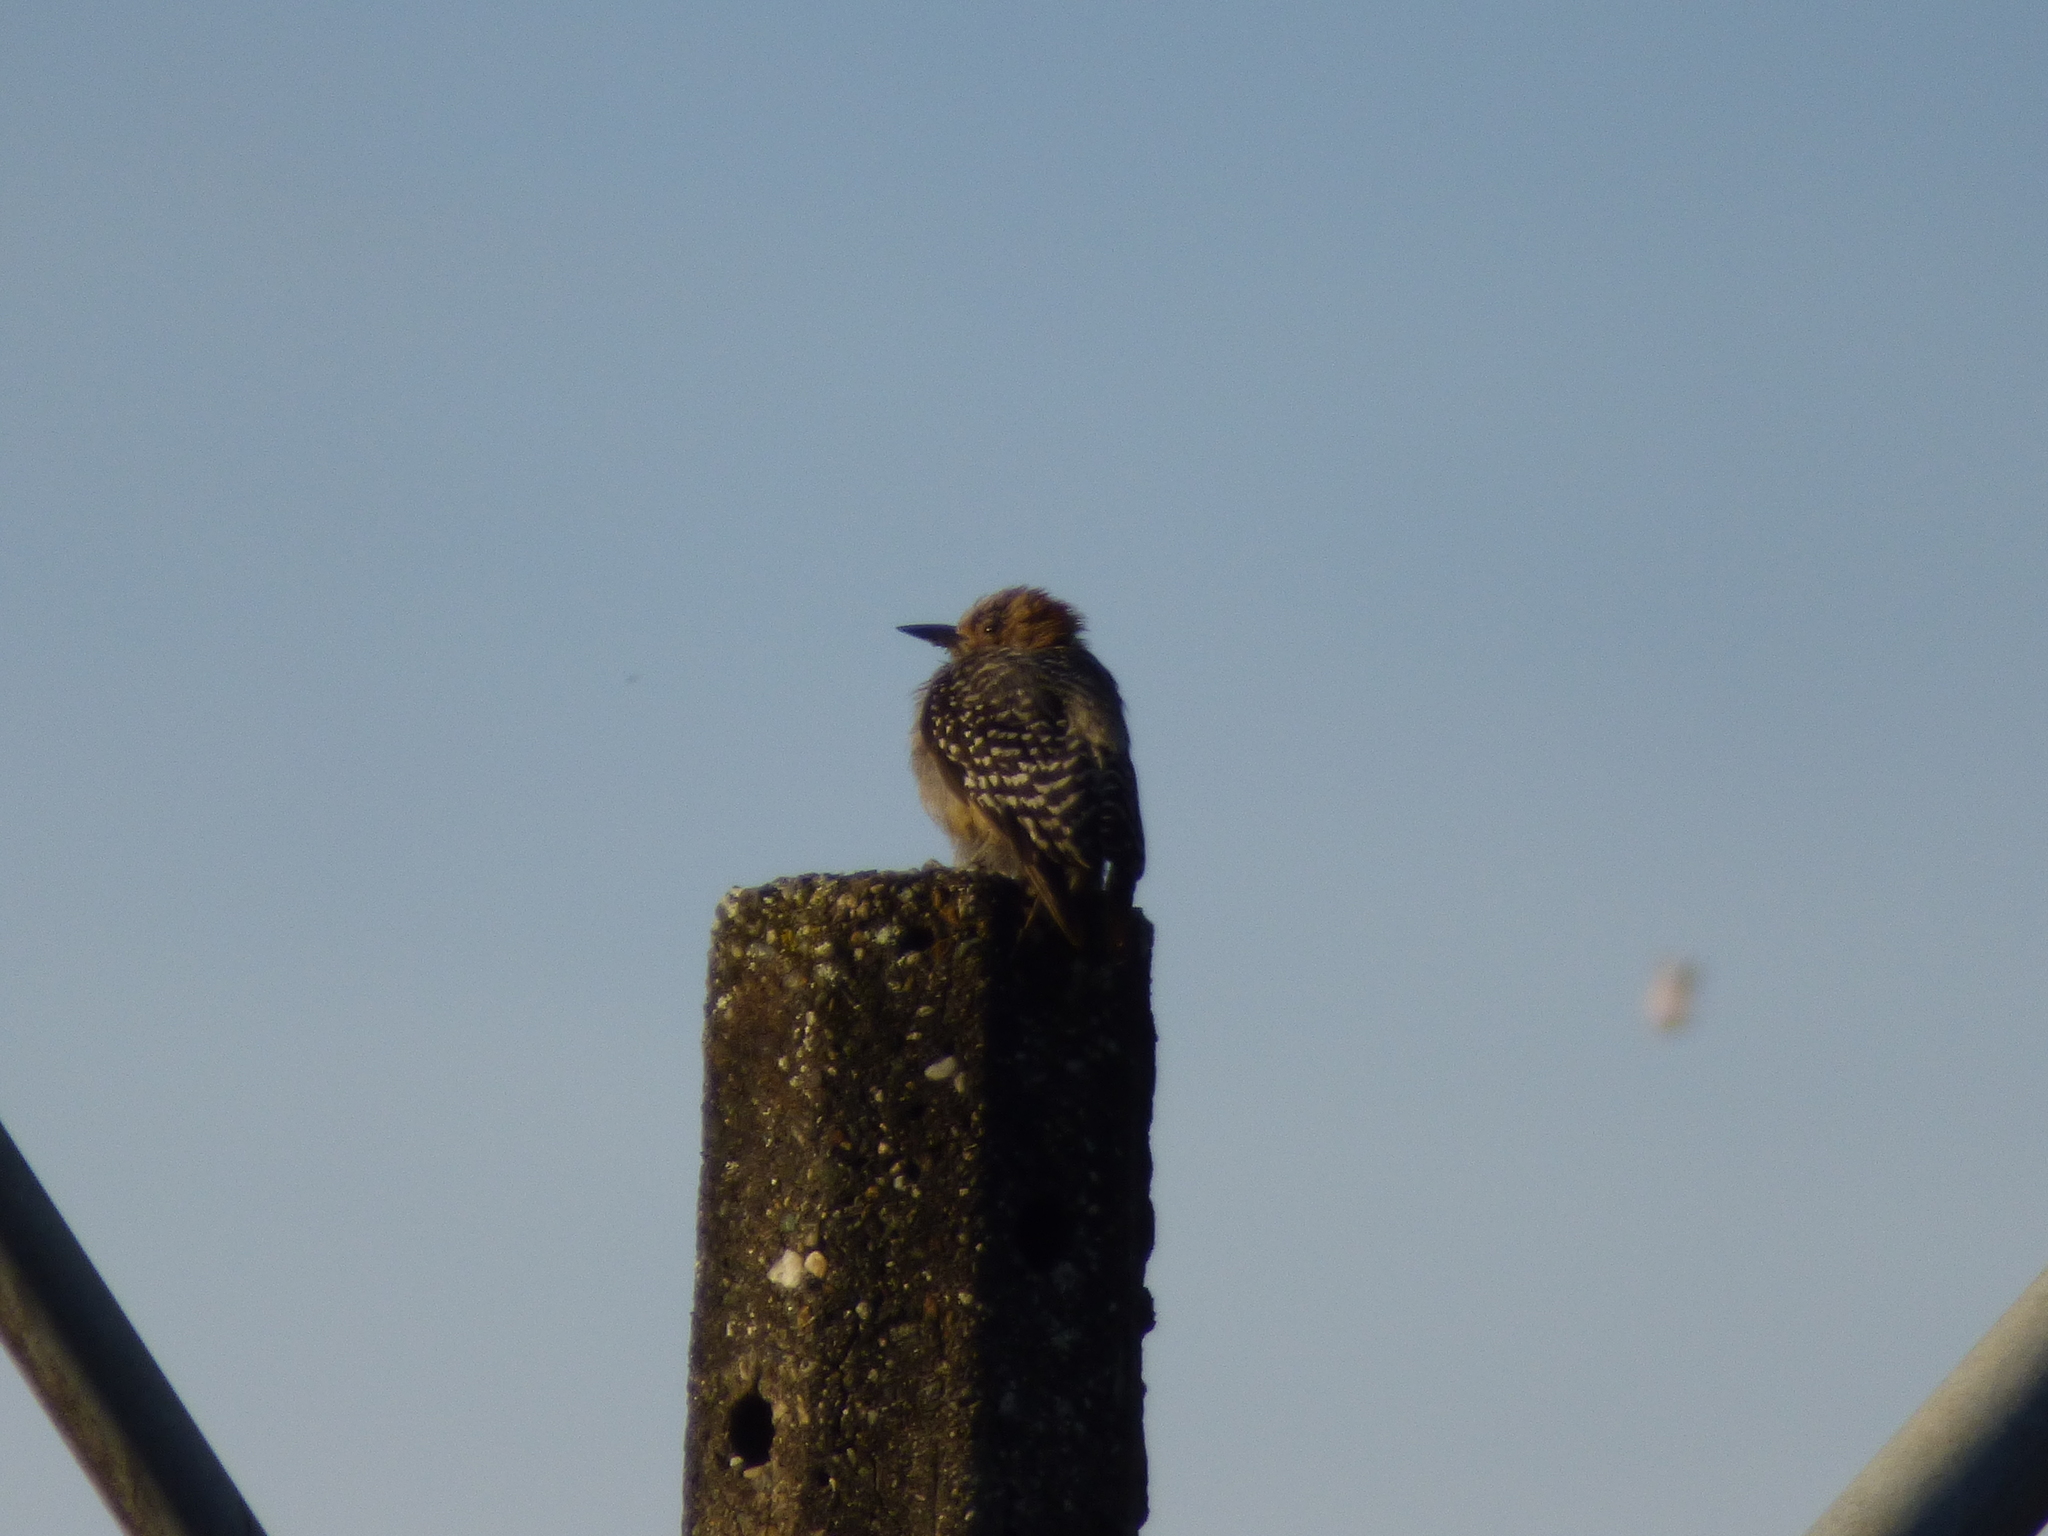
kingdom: Animalia
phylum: Chordata
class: Aves
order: Piciformes
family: Picidae
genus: Melanerpes
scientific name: Melanerpes rubricapillus
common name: Red-crowned woodpecker
